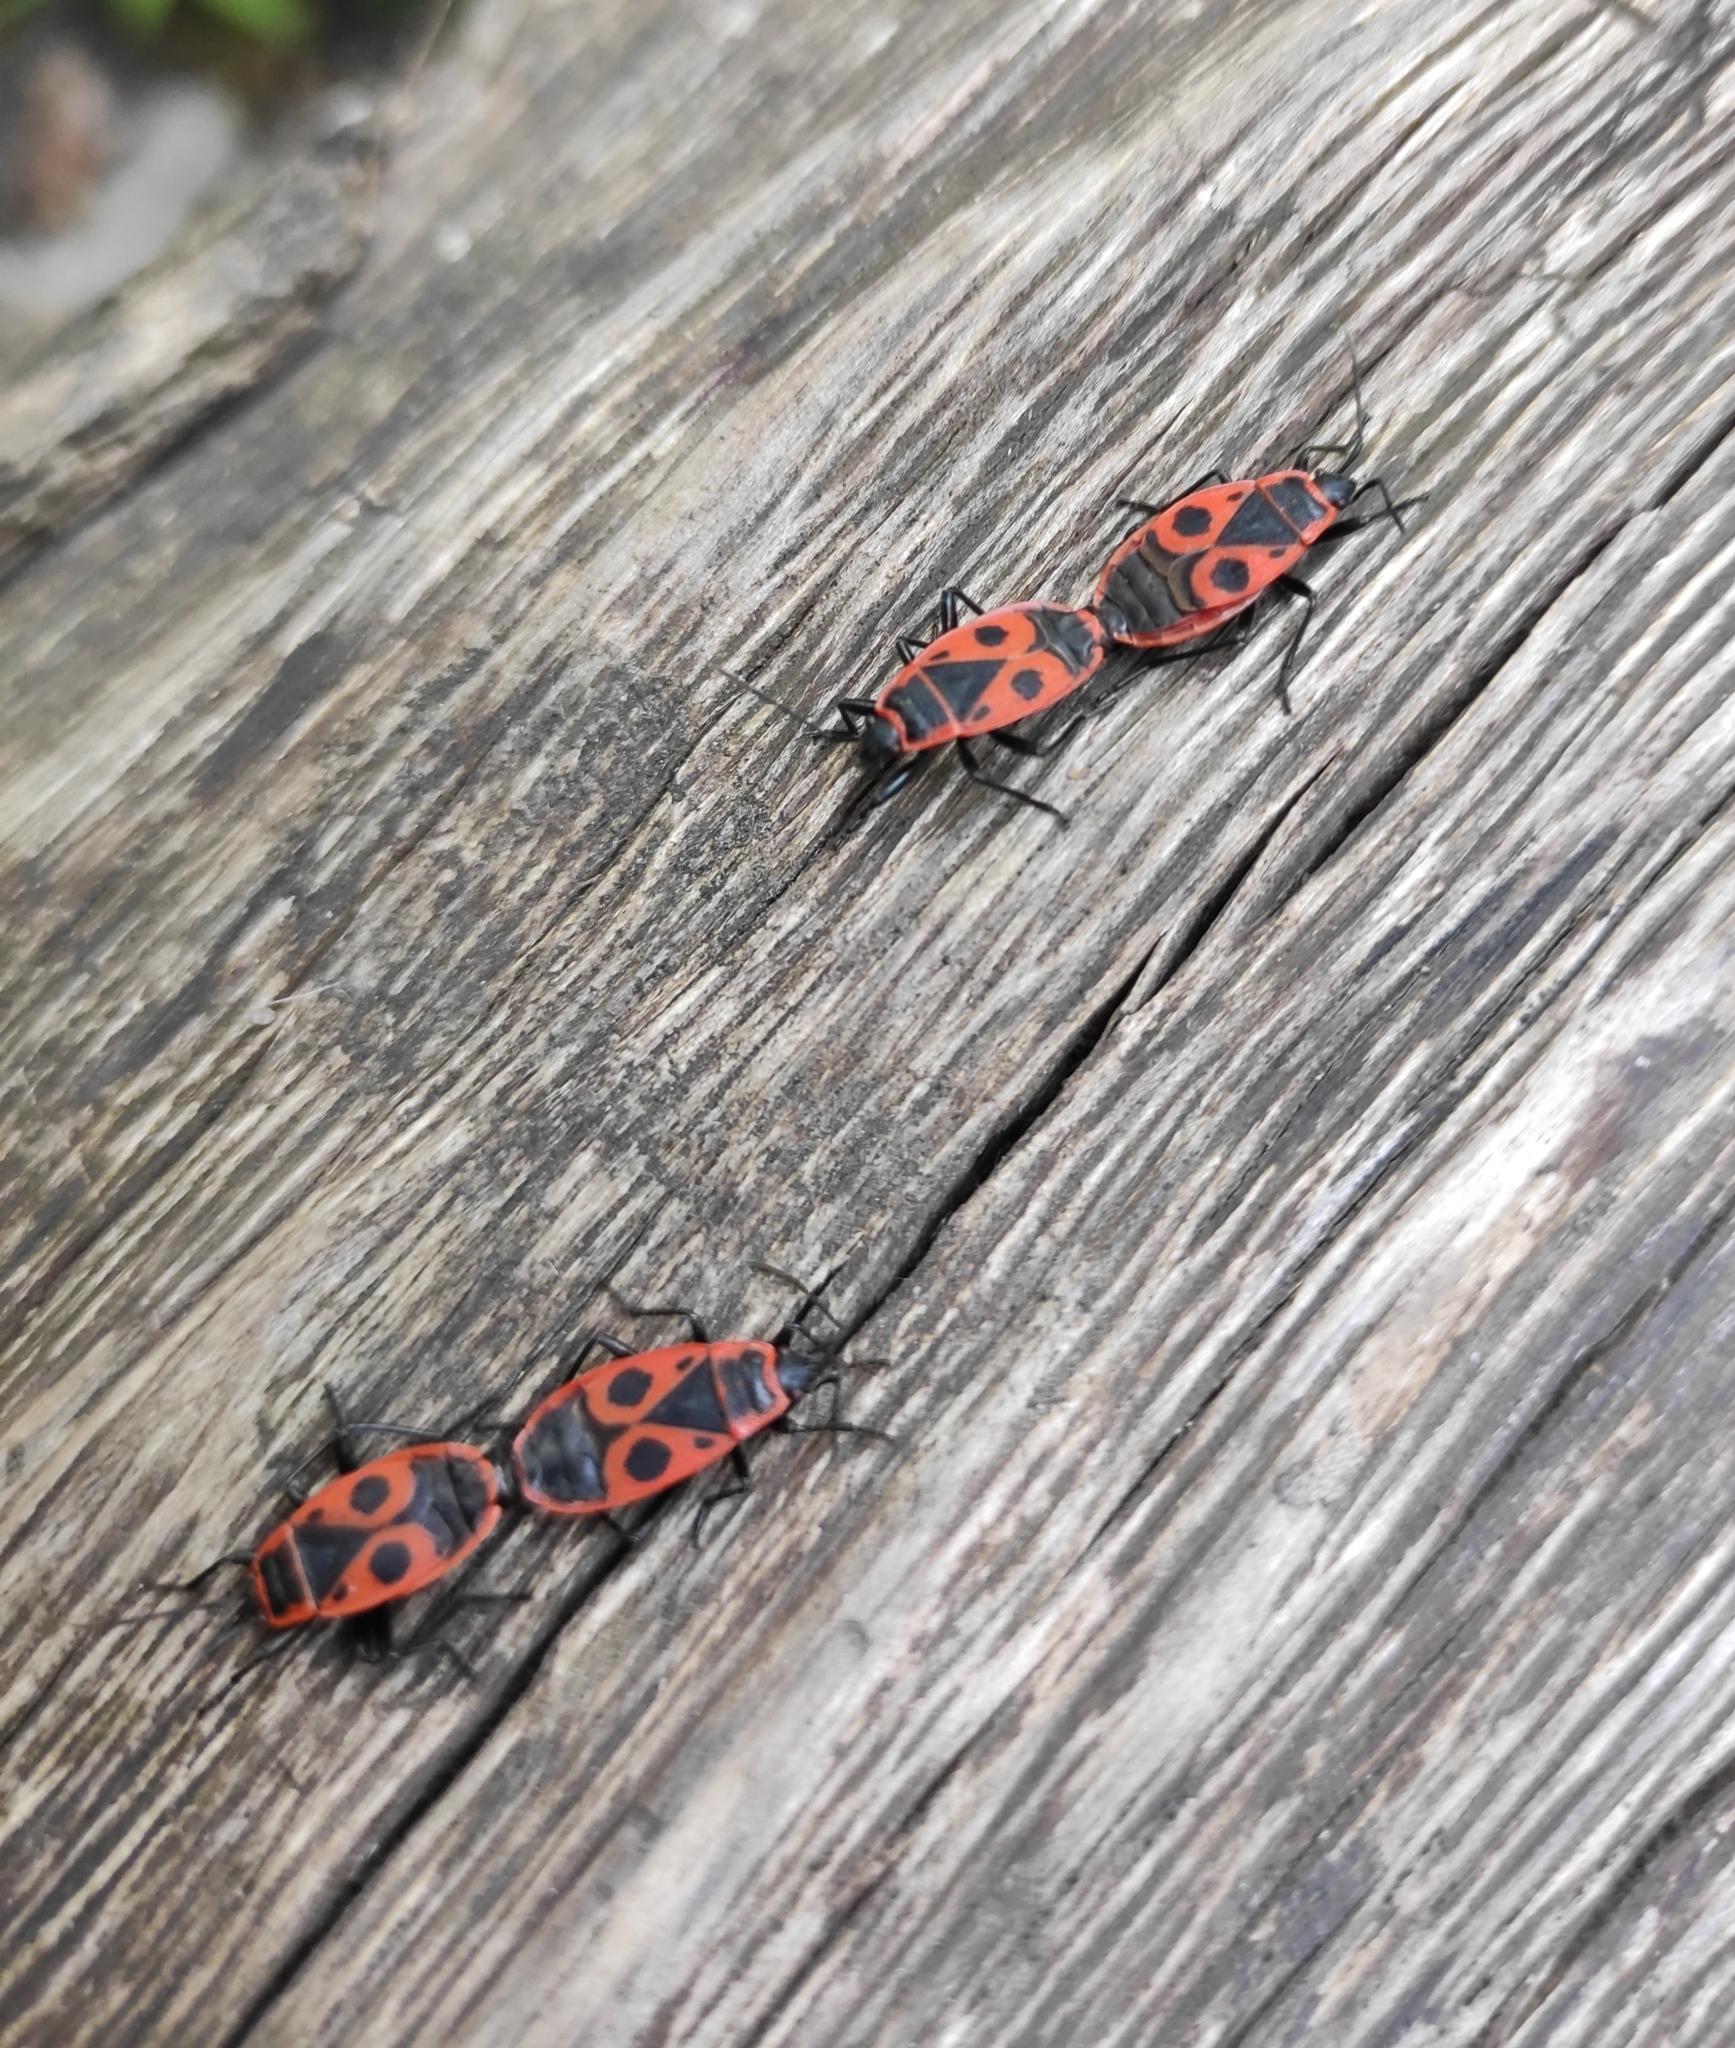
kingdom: Animalia
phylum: Arthropoda
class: Insecta
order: Hemiptera
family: Pyrrhocoridae
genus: Pyrrhocoris
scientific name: Pyrrhocoris apterus
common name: Firebug
